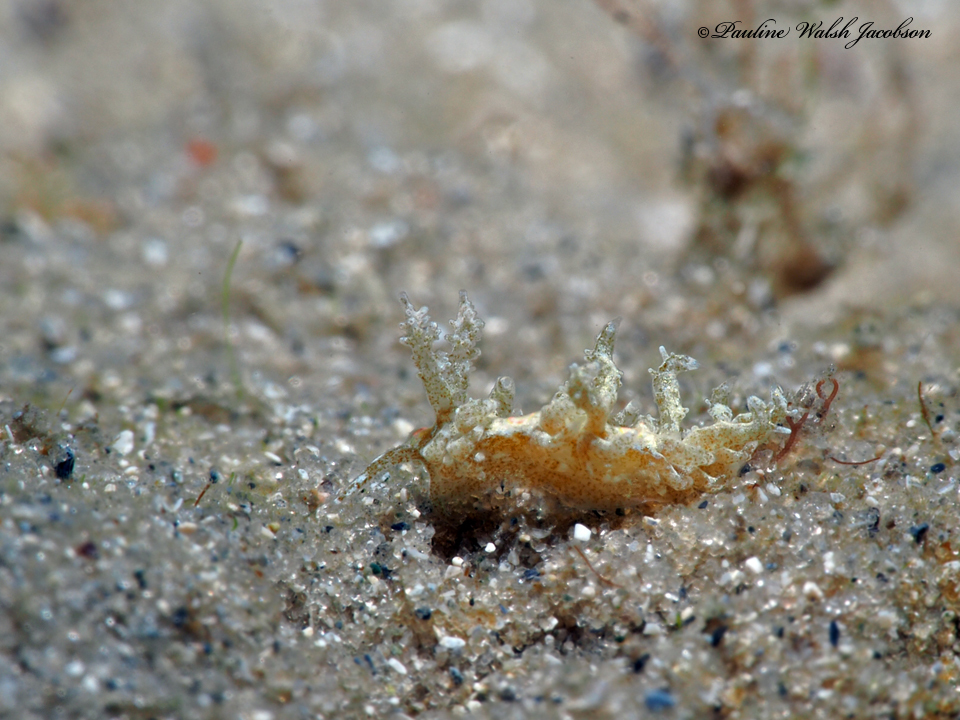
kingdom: Animalia
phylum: Mollusca
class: Gastropoda
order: Nudibranchia
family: Aeolidiidae
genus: Limenandra
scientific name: Limenandra nodosa
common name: Warty baeolidia
